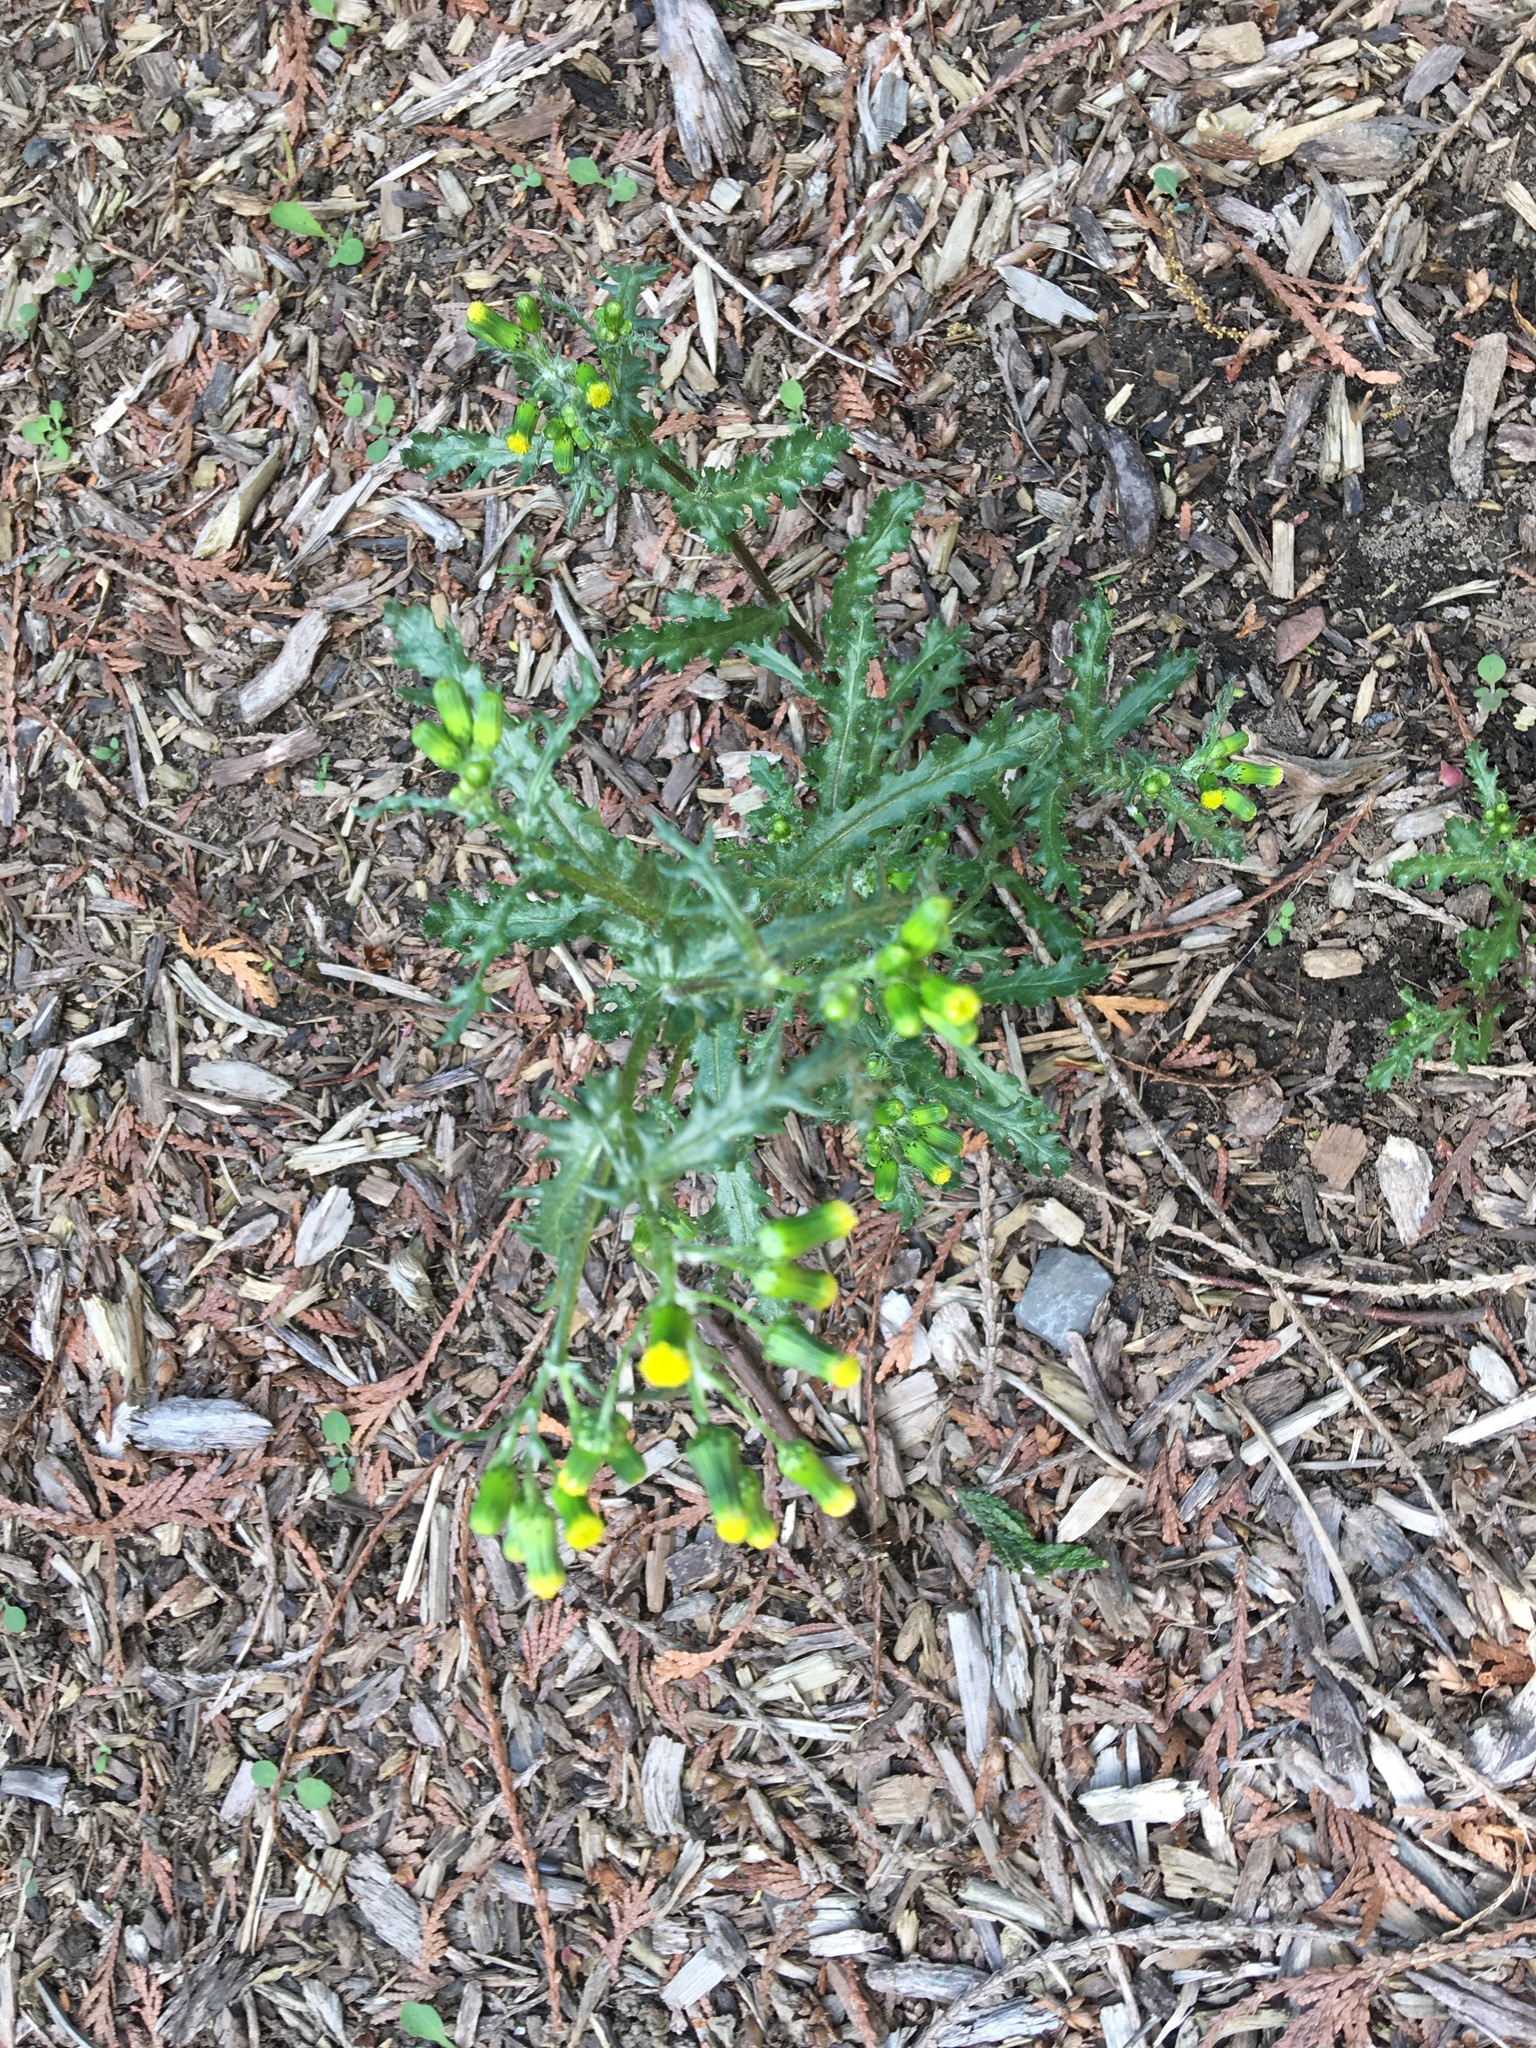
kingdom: Plantae
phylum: Tracheophyta
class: Magnoliopsida
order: Asterales
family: Asteraceae
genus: Senecio
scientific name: Senecio vulgaris
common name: Old-man-in-the-spring
